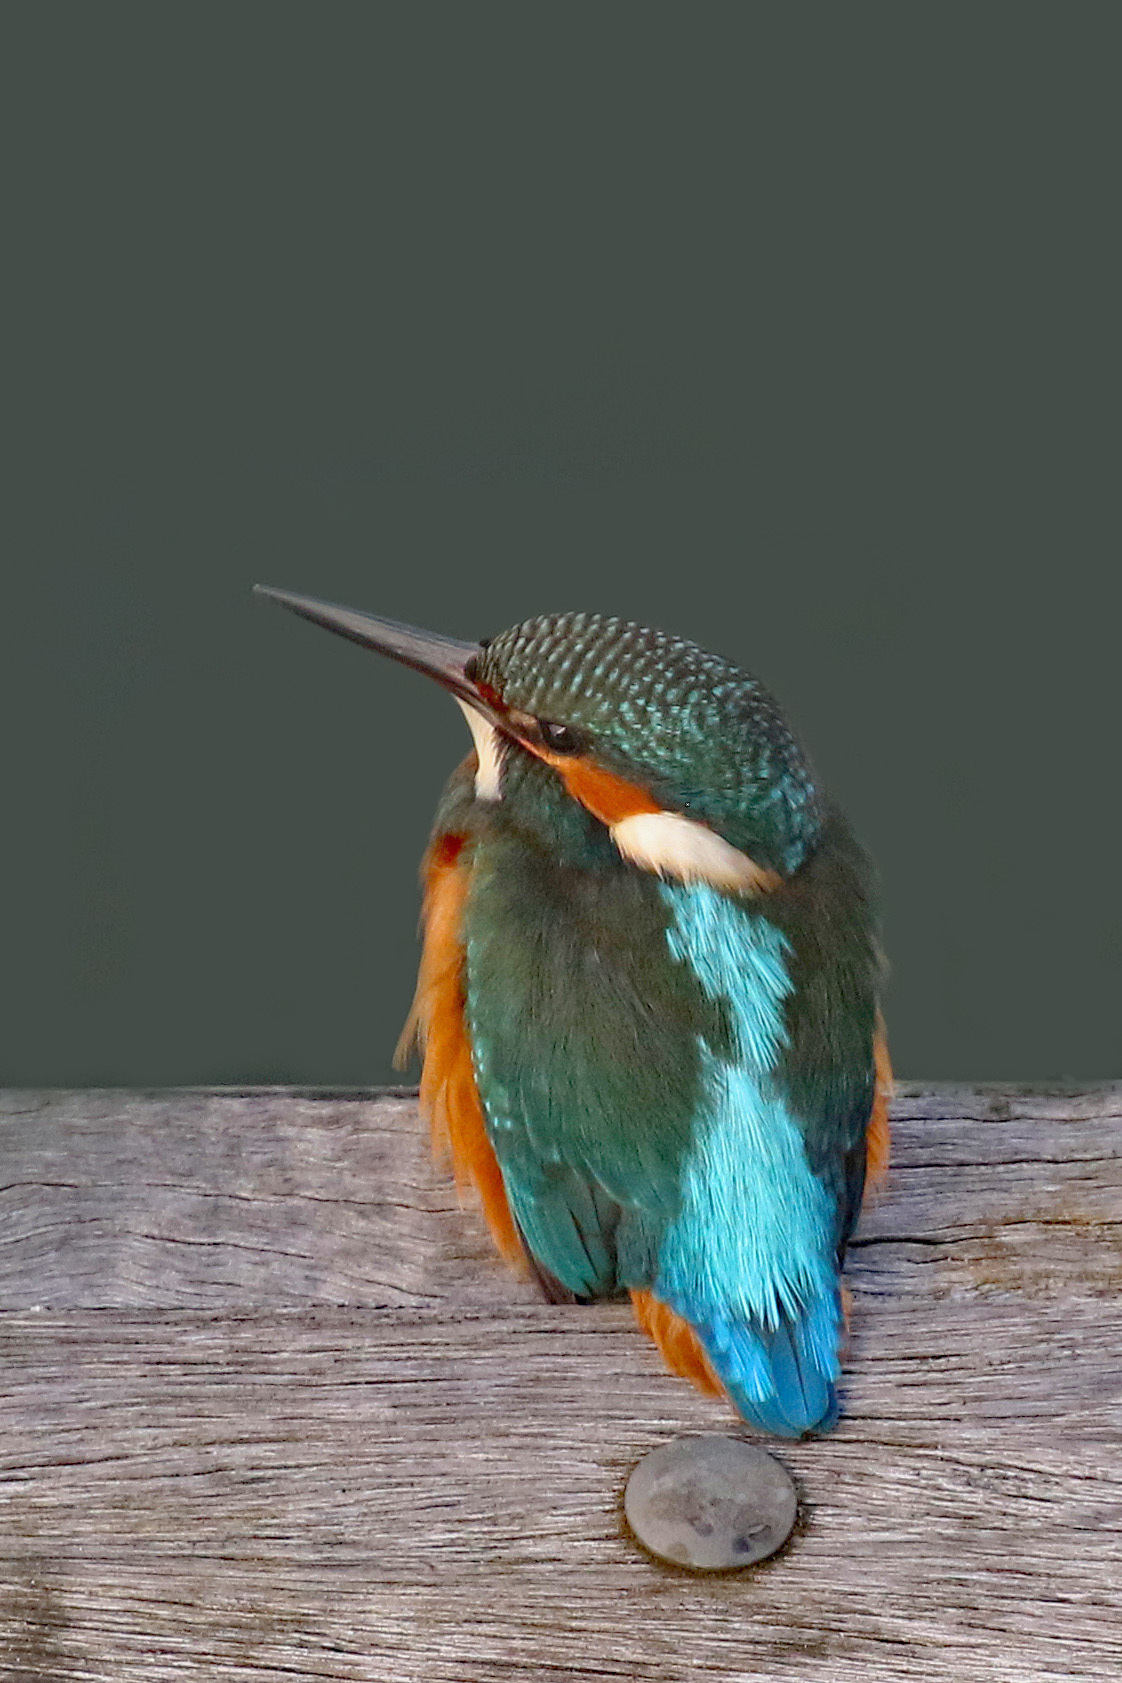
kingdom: Animalia
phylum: Chordata
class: Aves
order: Coraciiformes
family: Alcedinidae
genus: Alcedo
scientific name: Alcedo atthis
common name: Common kingfisher
